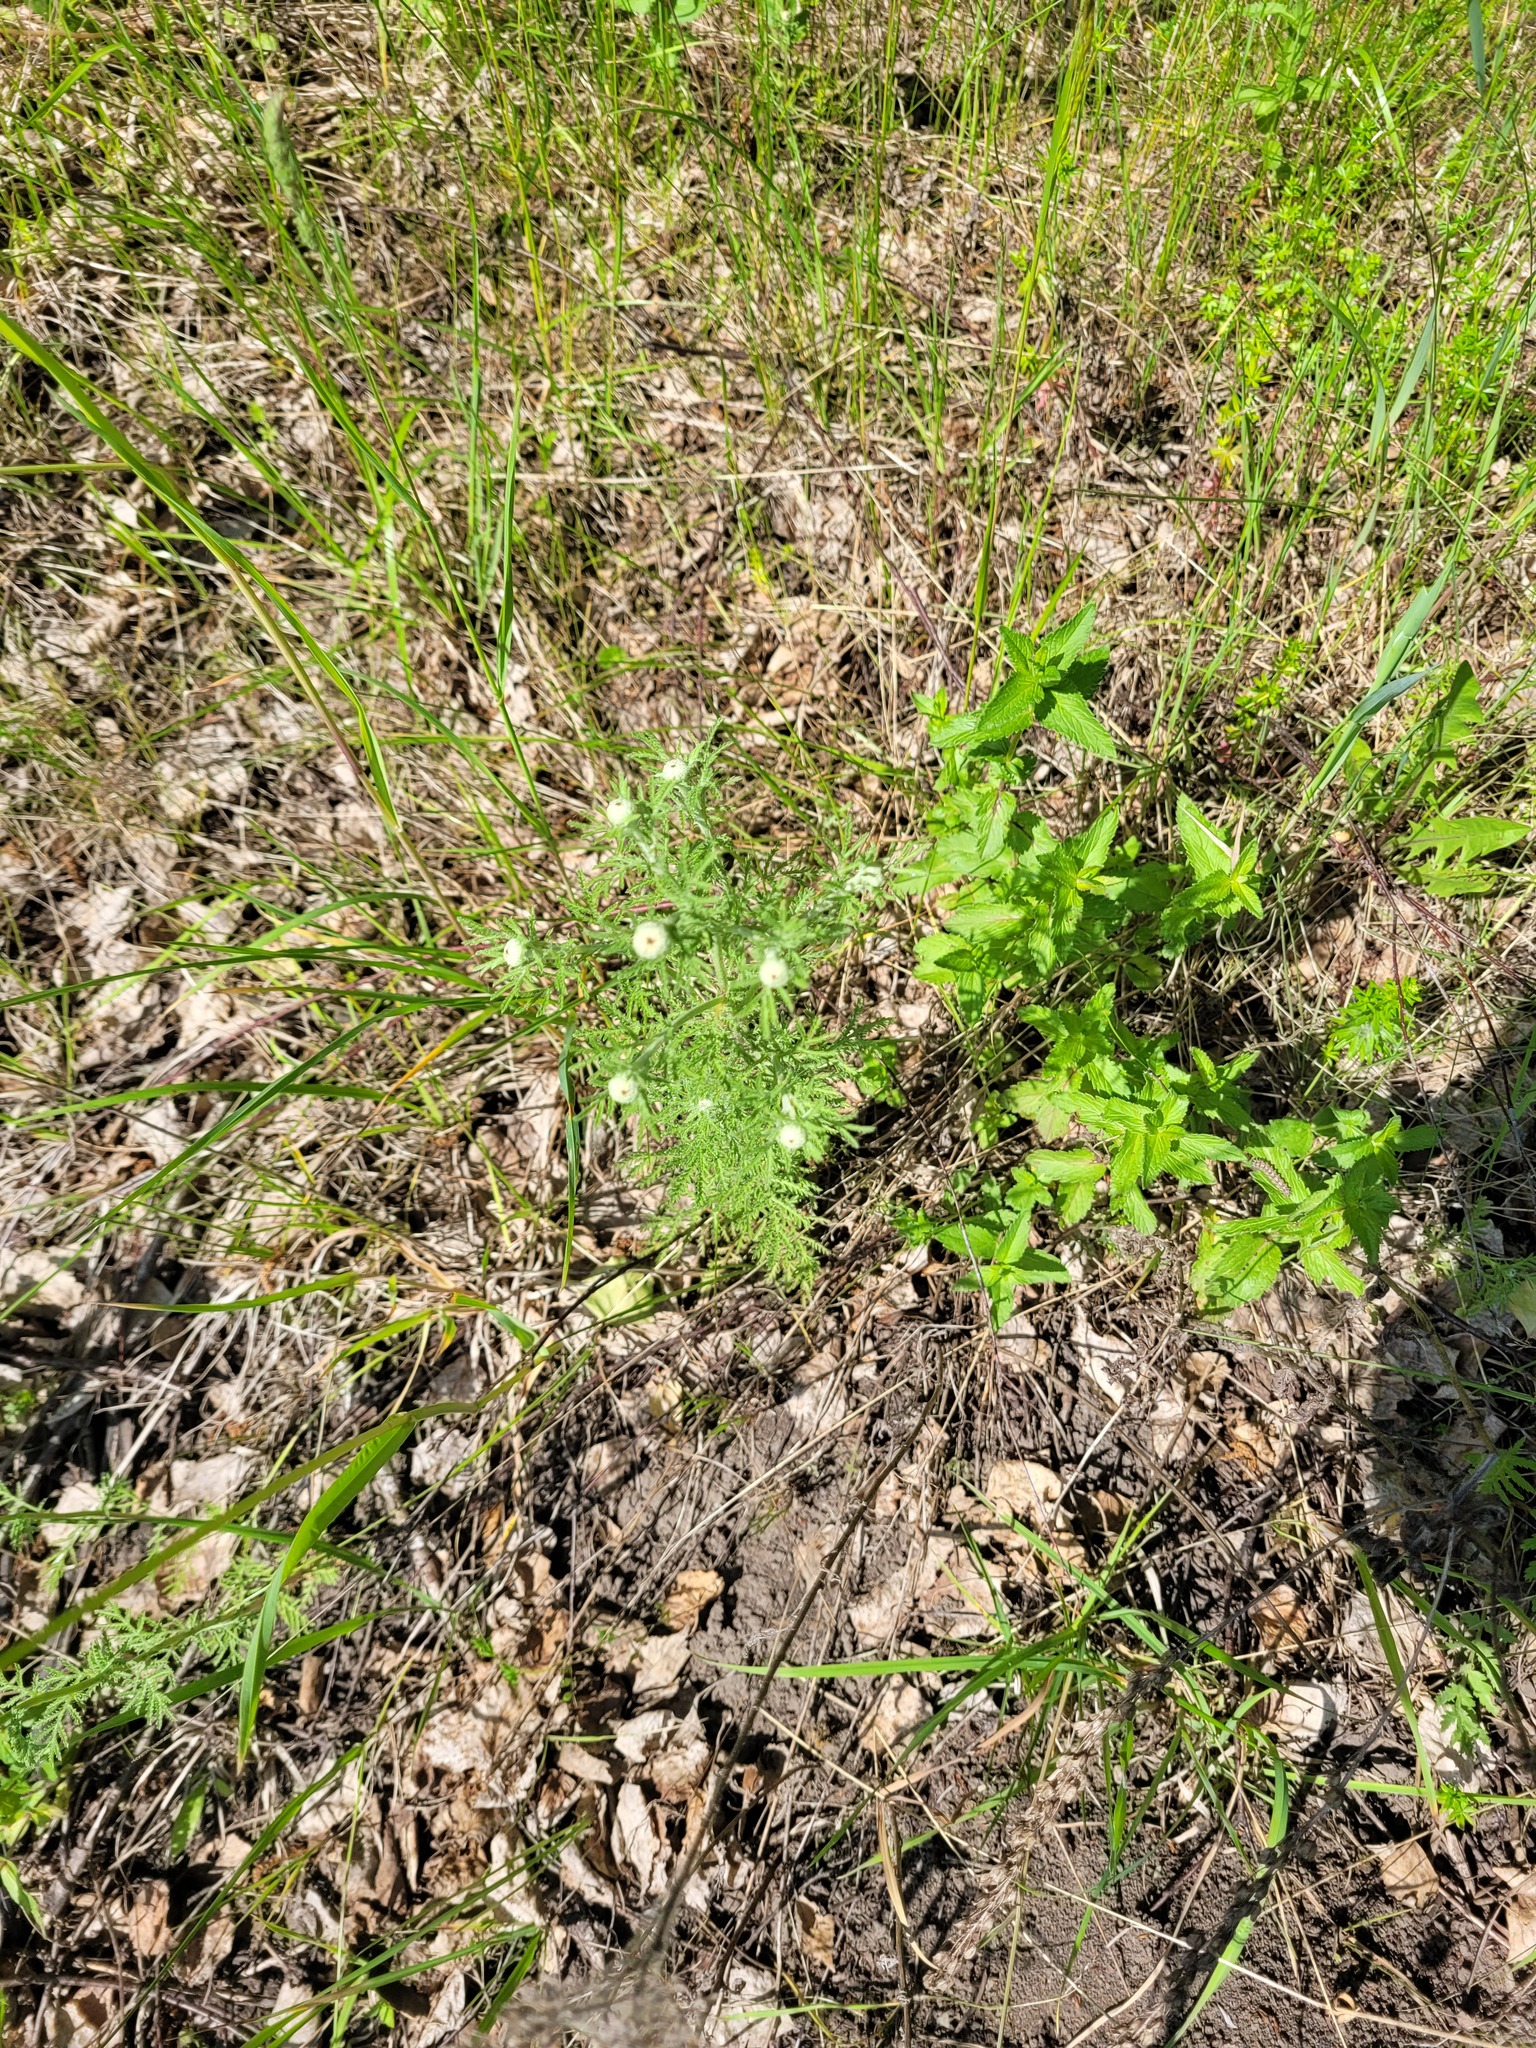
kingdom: Plantae
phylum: Tracheophyta
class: Magnoliopsida
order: Asterales
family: Asteraceae
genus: Cota
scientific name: Cota tinctoria
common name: Golden chamomile
